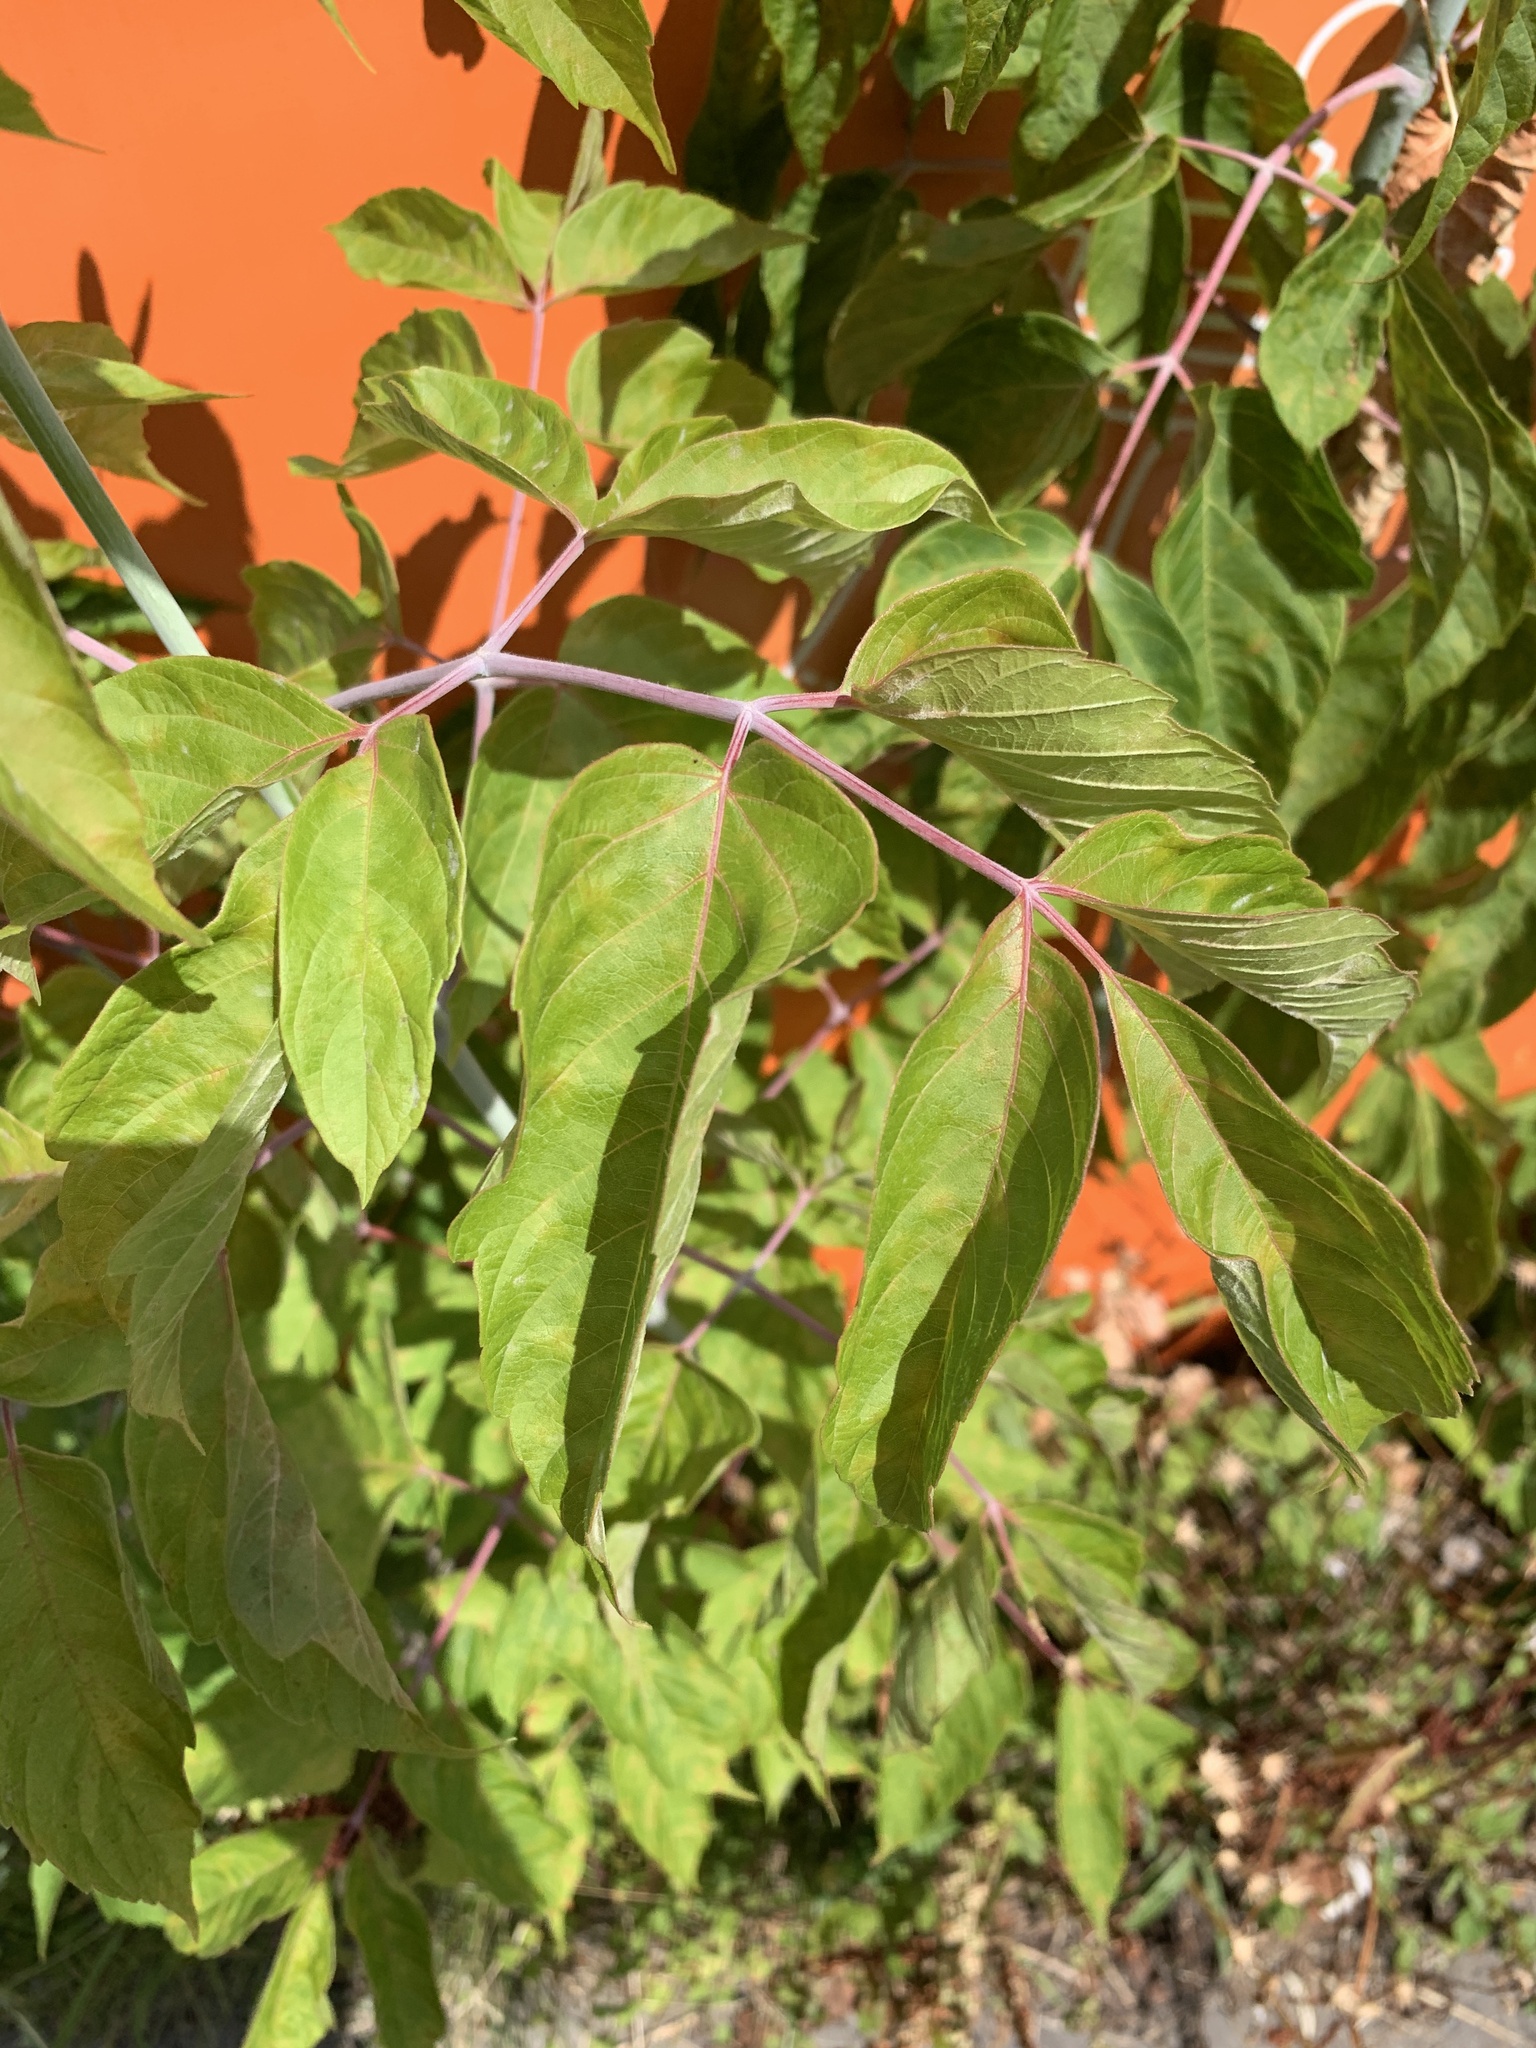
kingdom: Plantae
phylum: Tracheophyta
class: Magnoliopsida
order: Sapindales
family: Sapindaceae
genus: Acer
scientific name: Acer negundo
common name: Ashleaf maple
